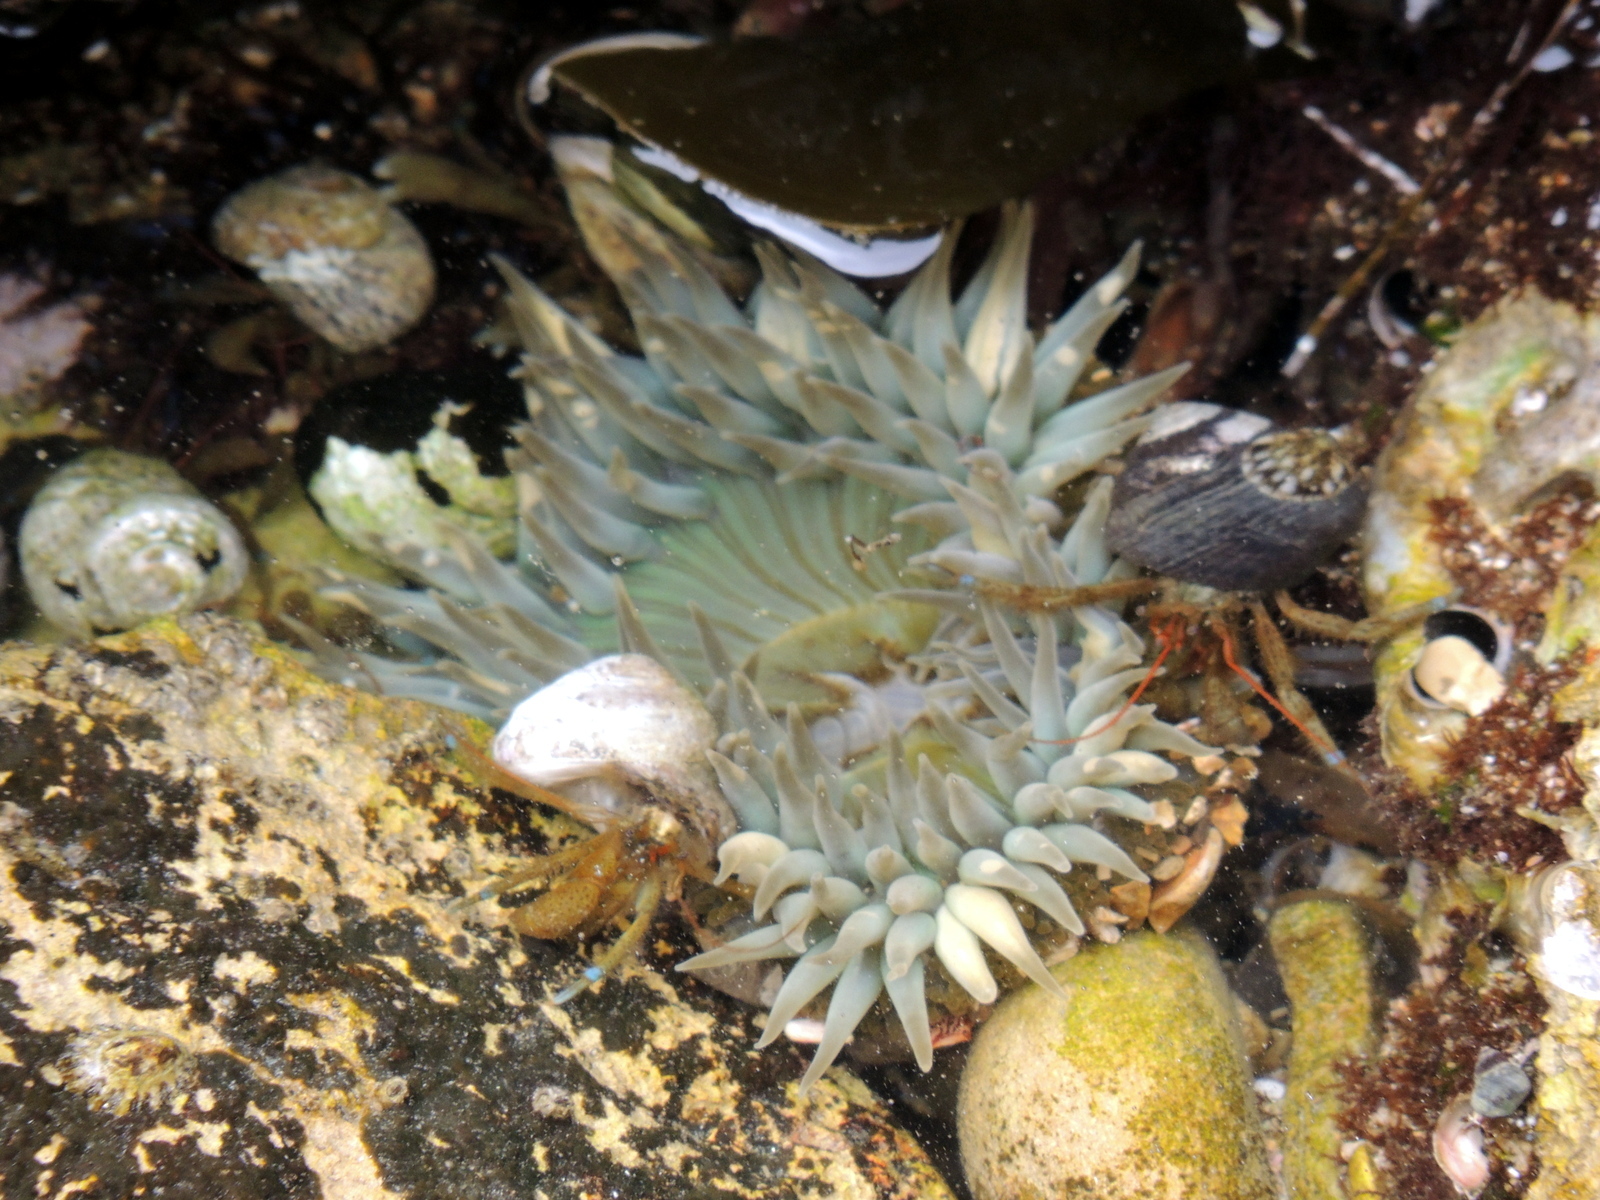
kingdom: Animalia
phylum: Cnidaria
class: Anthozoa
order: Actiniaria
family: Actiniidae
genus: Anthopleura
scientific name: Anthopleura sola
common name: Sun anemone
